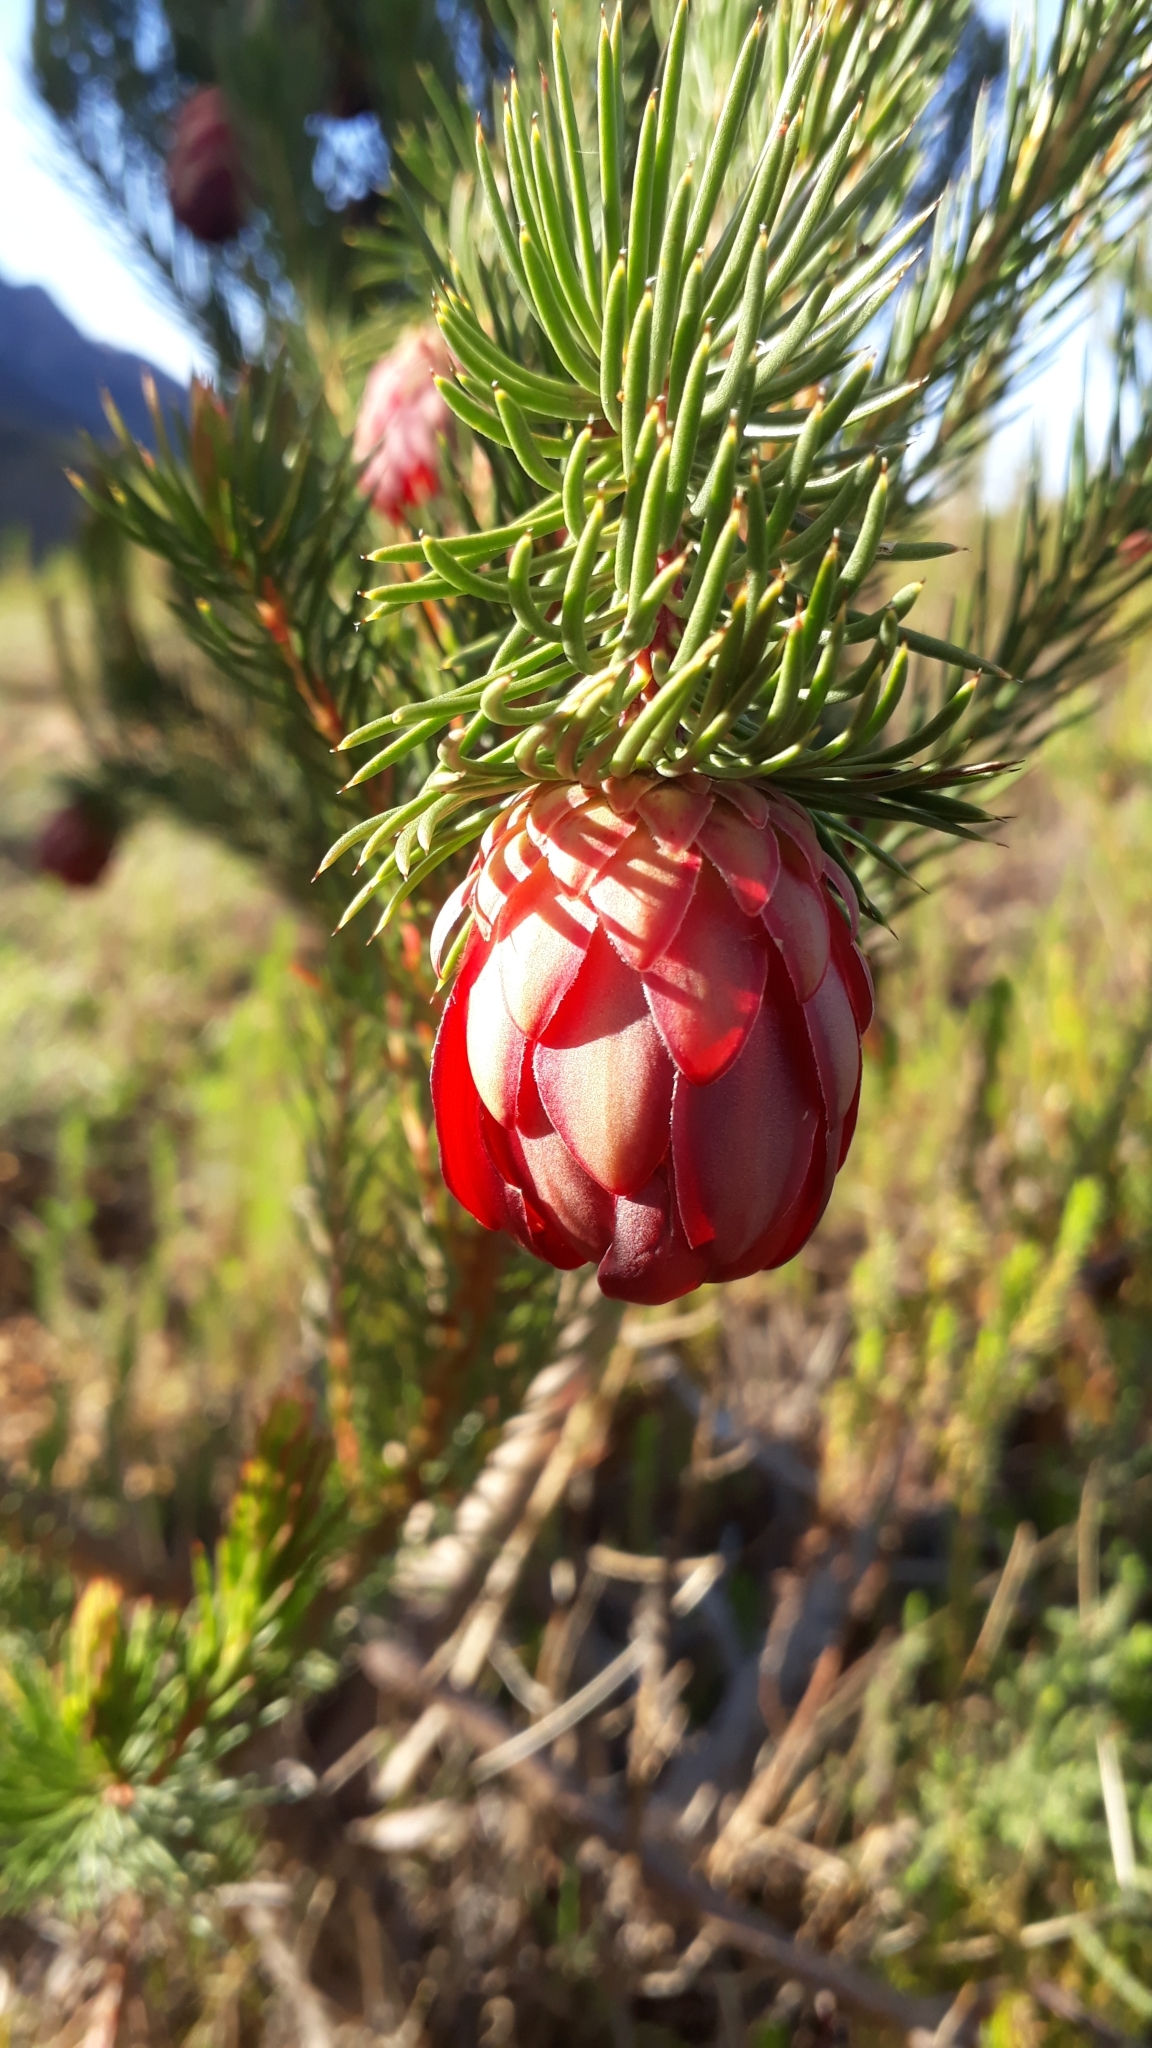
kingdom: Plantae
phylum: Tracheophyta
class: Magnoliopsida
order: Proteales
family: Proteaceae
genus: Protea
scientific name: Protea nana
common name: Mountain rose
